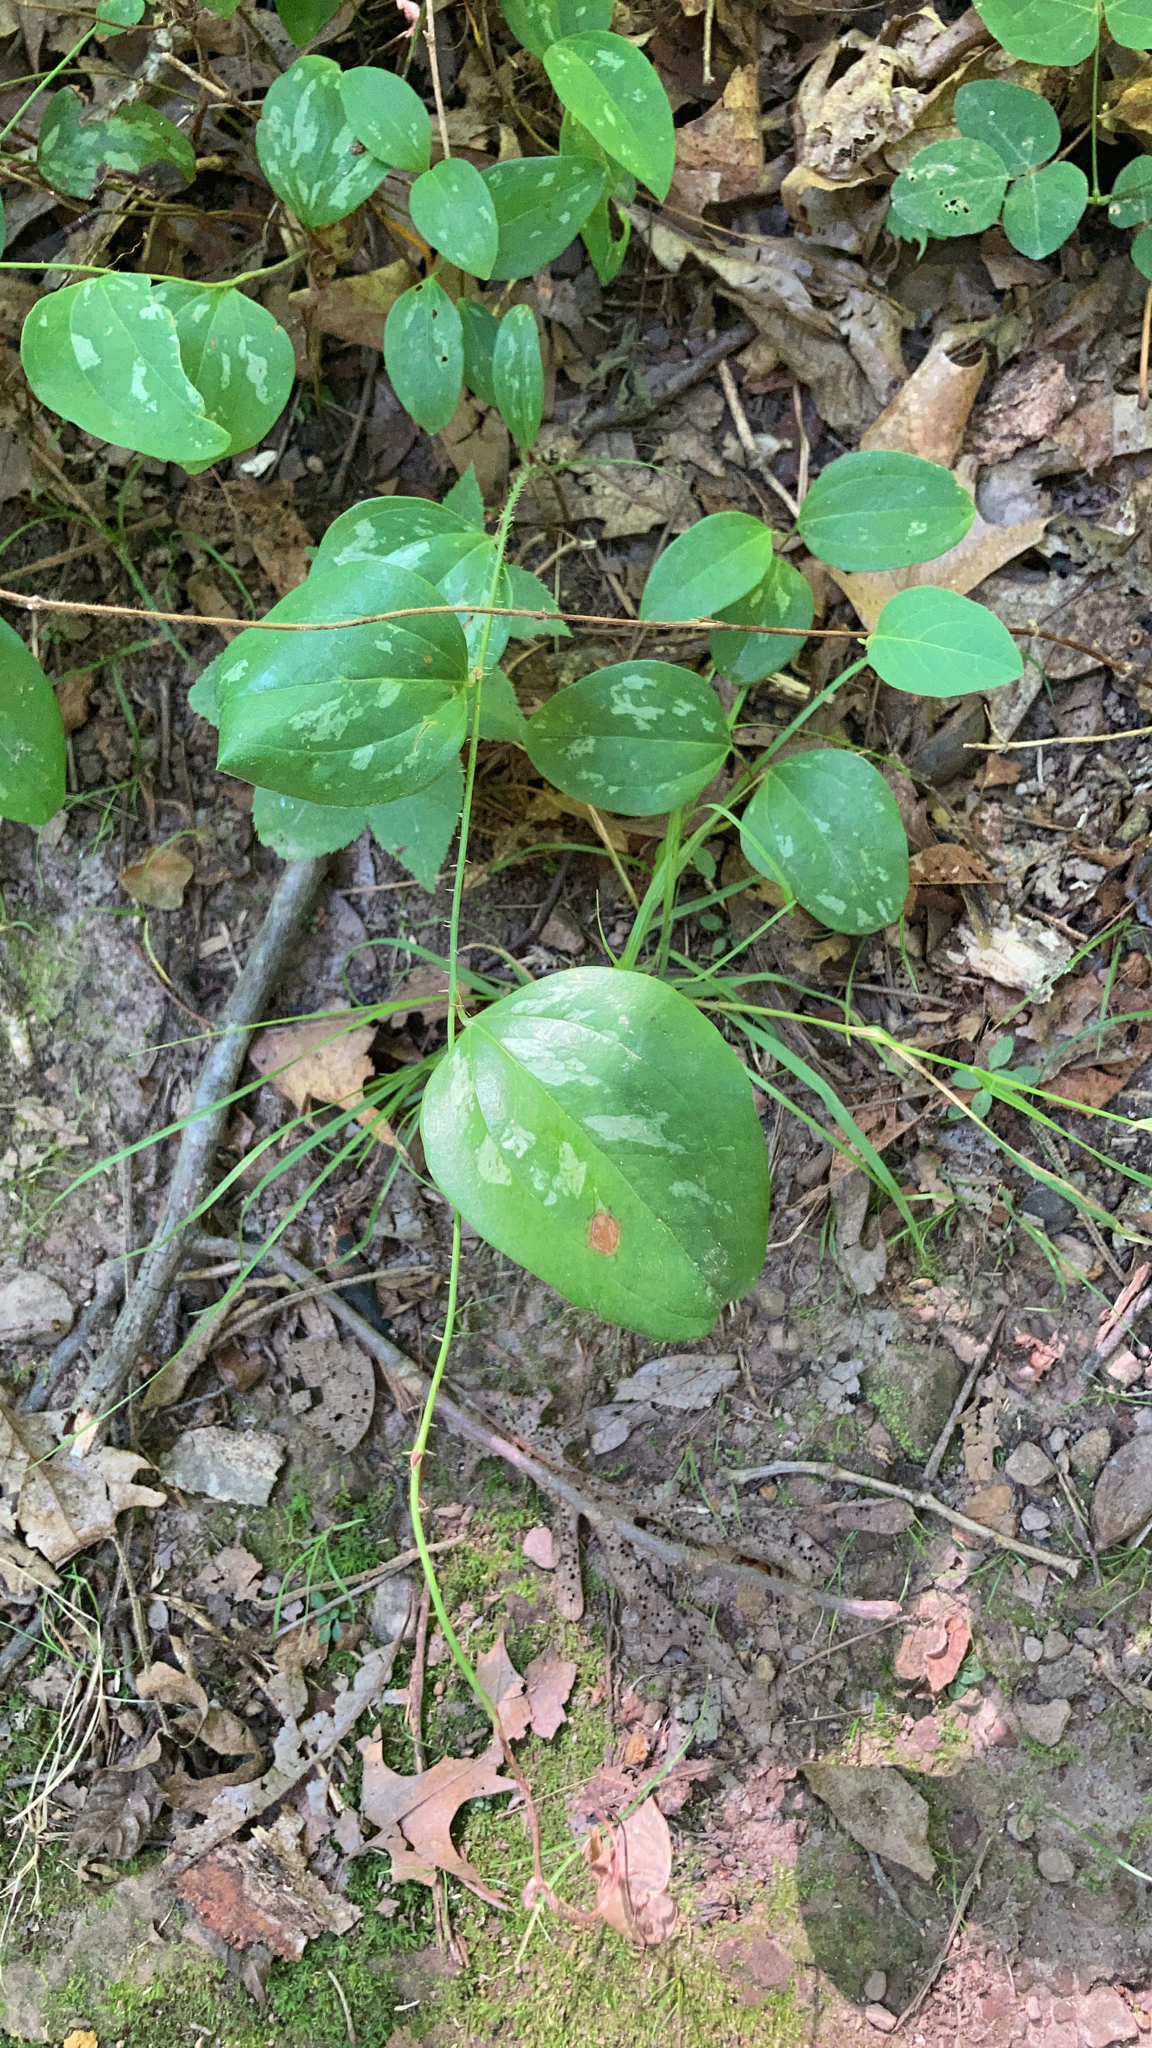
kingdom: Plantae
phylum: Tracheophyta
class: Liliopsida
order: Liliales
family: Smilacaceae
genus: Smilax
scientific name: Smilax glauca
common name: Cat greenbrier
